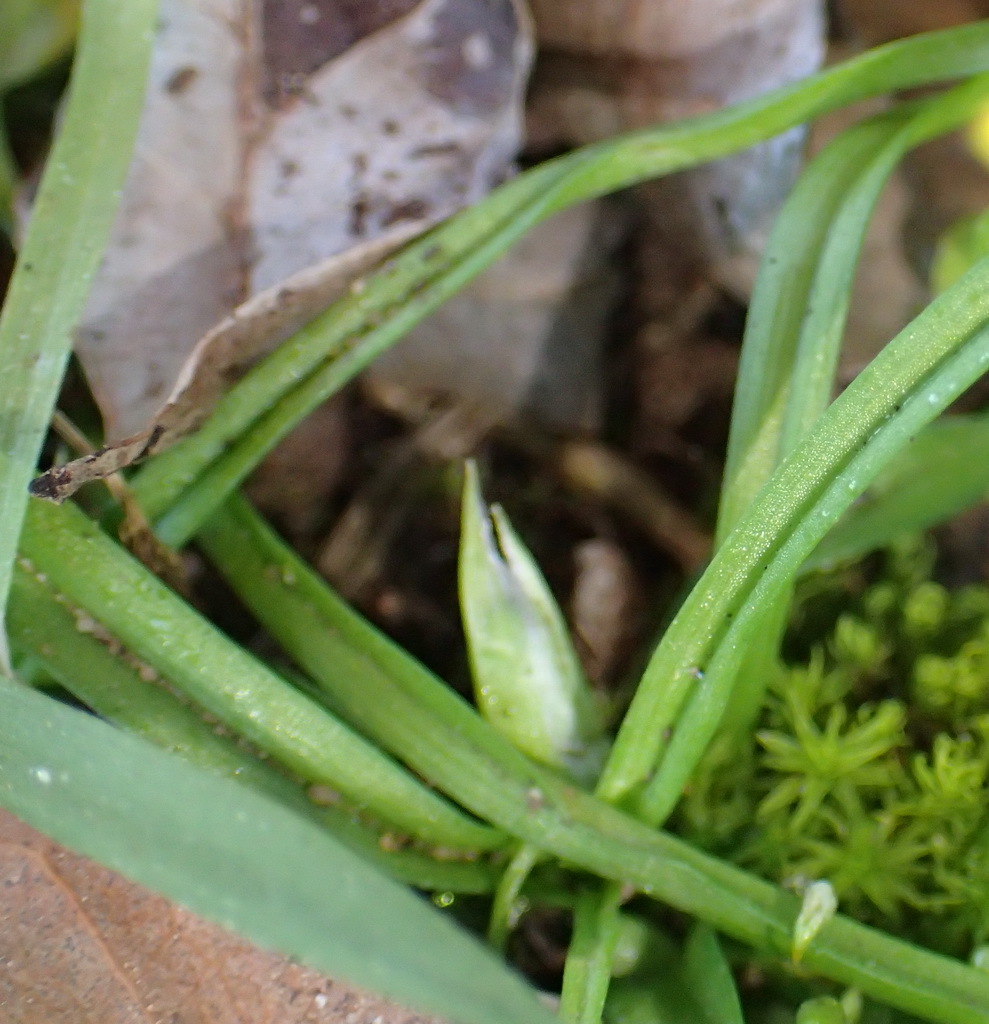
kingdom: Plantae
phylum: Tracheophyta
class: Liliopsida
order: Asparagales
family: Hypoxidaceae
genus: Pauridia
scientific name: Pauridia flaccida
